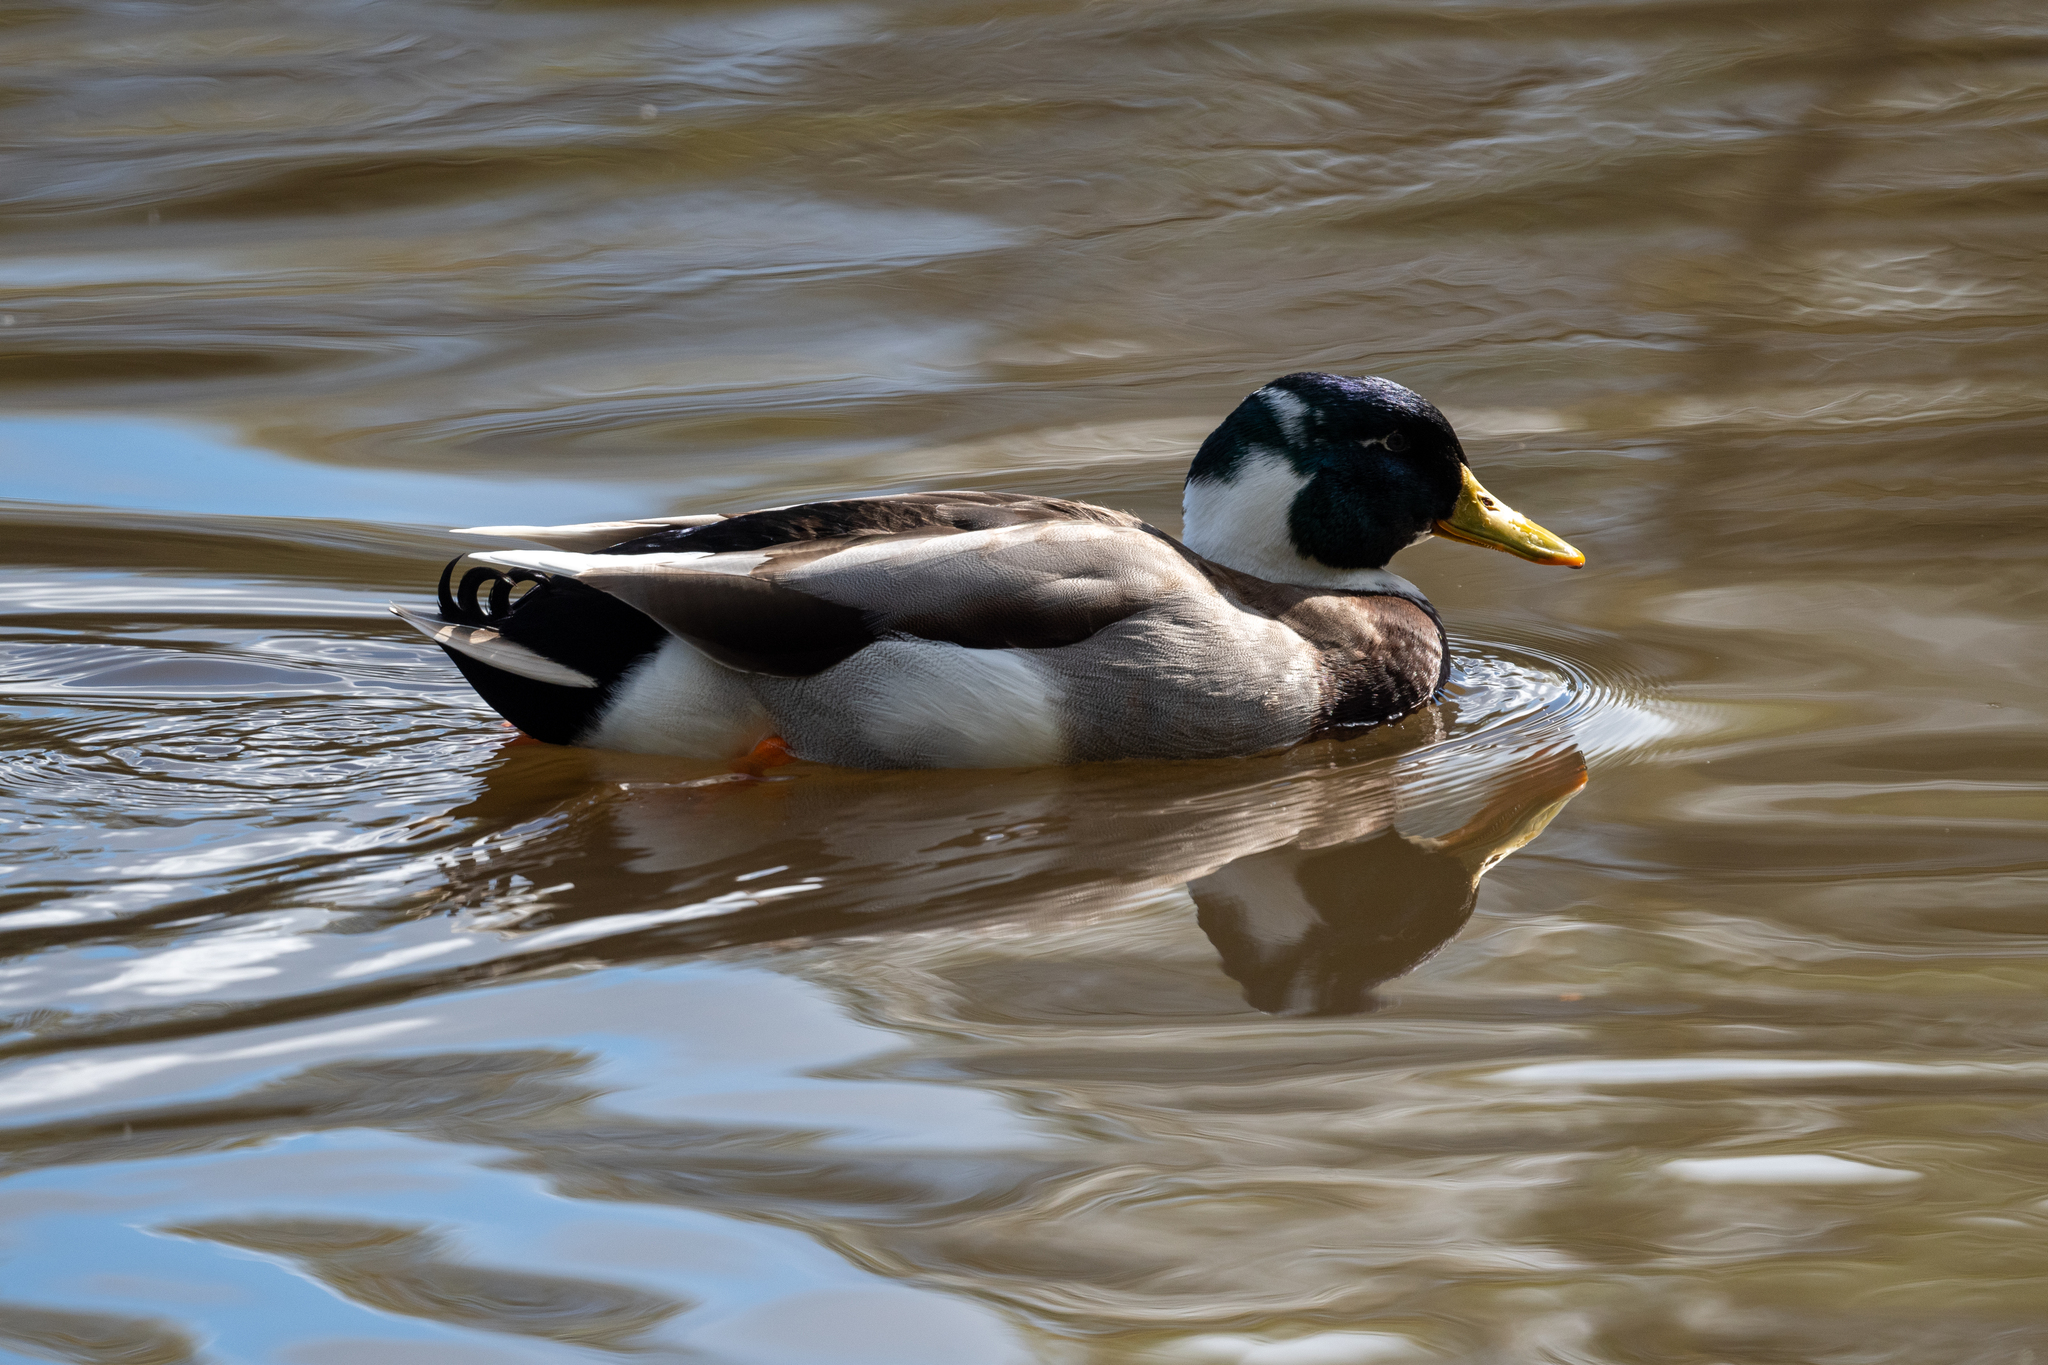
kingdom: Animalia
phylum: Chordata
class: Aves
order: Anseriformes
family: Anatidae
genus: Anas
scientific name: Anas platyrhynchos
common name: Mallard
